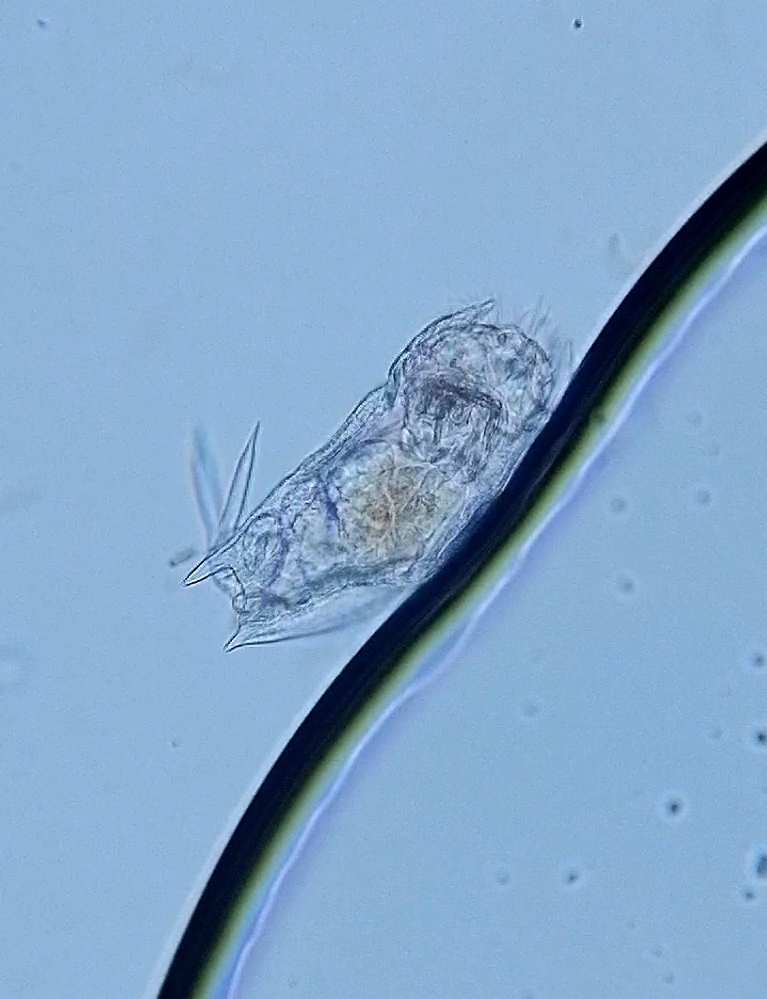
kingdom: Animalia
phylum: Rotifera
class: Eurotatoria
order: Ploima
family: Mytilinidae
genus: Mytilina
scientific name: Mytilina mucronata
